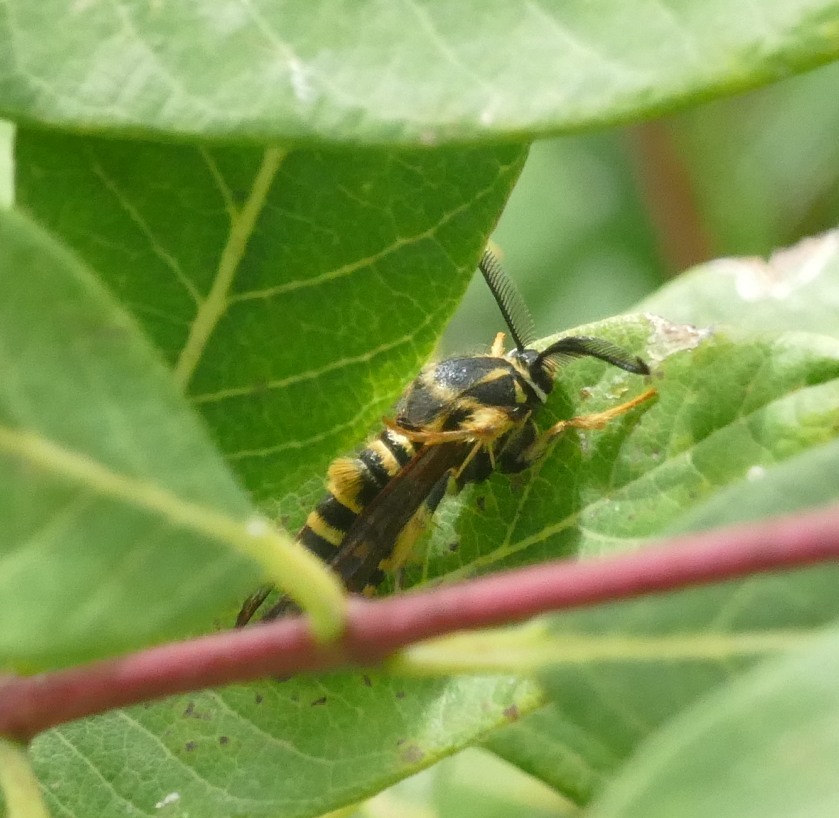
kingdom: Animalia
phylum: Arthropoda
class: Insecta
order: Lepidoptera
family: Sesiidae
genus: Pennisetia
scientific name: Pennisetia marginatum
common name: Raspberry crown borer
